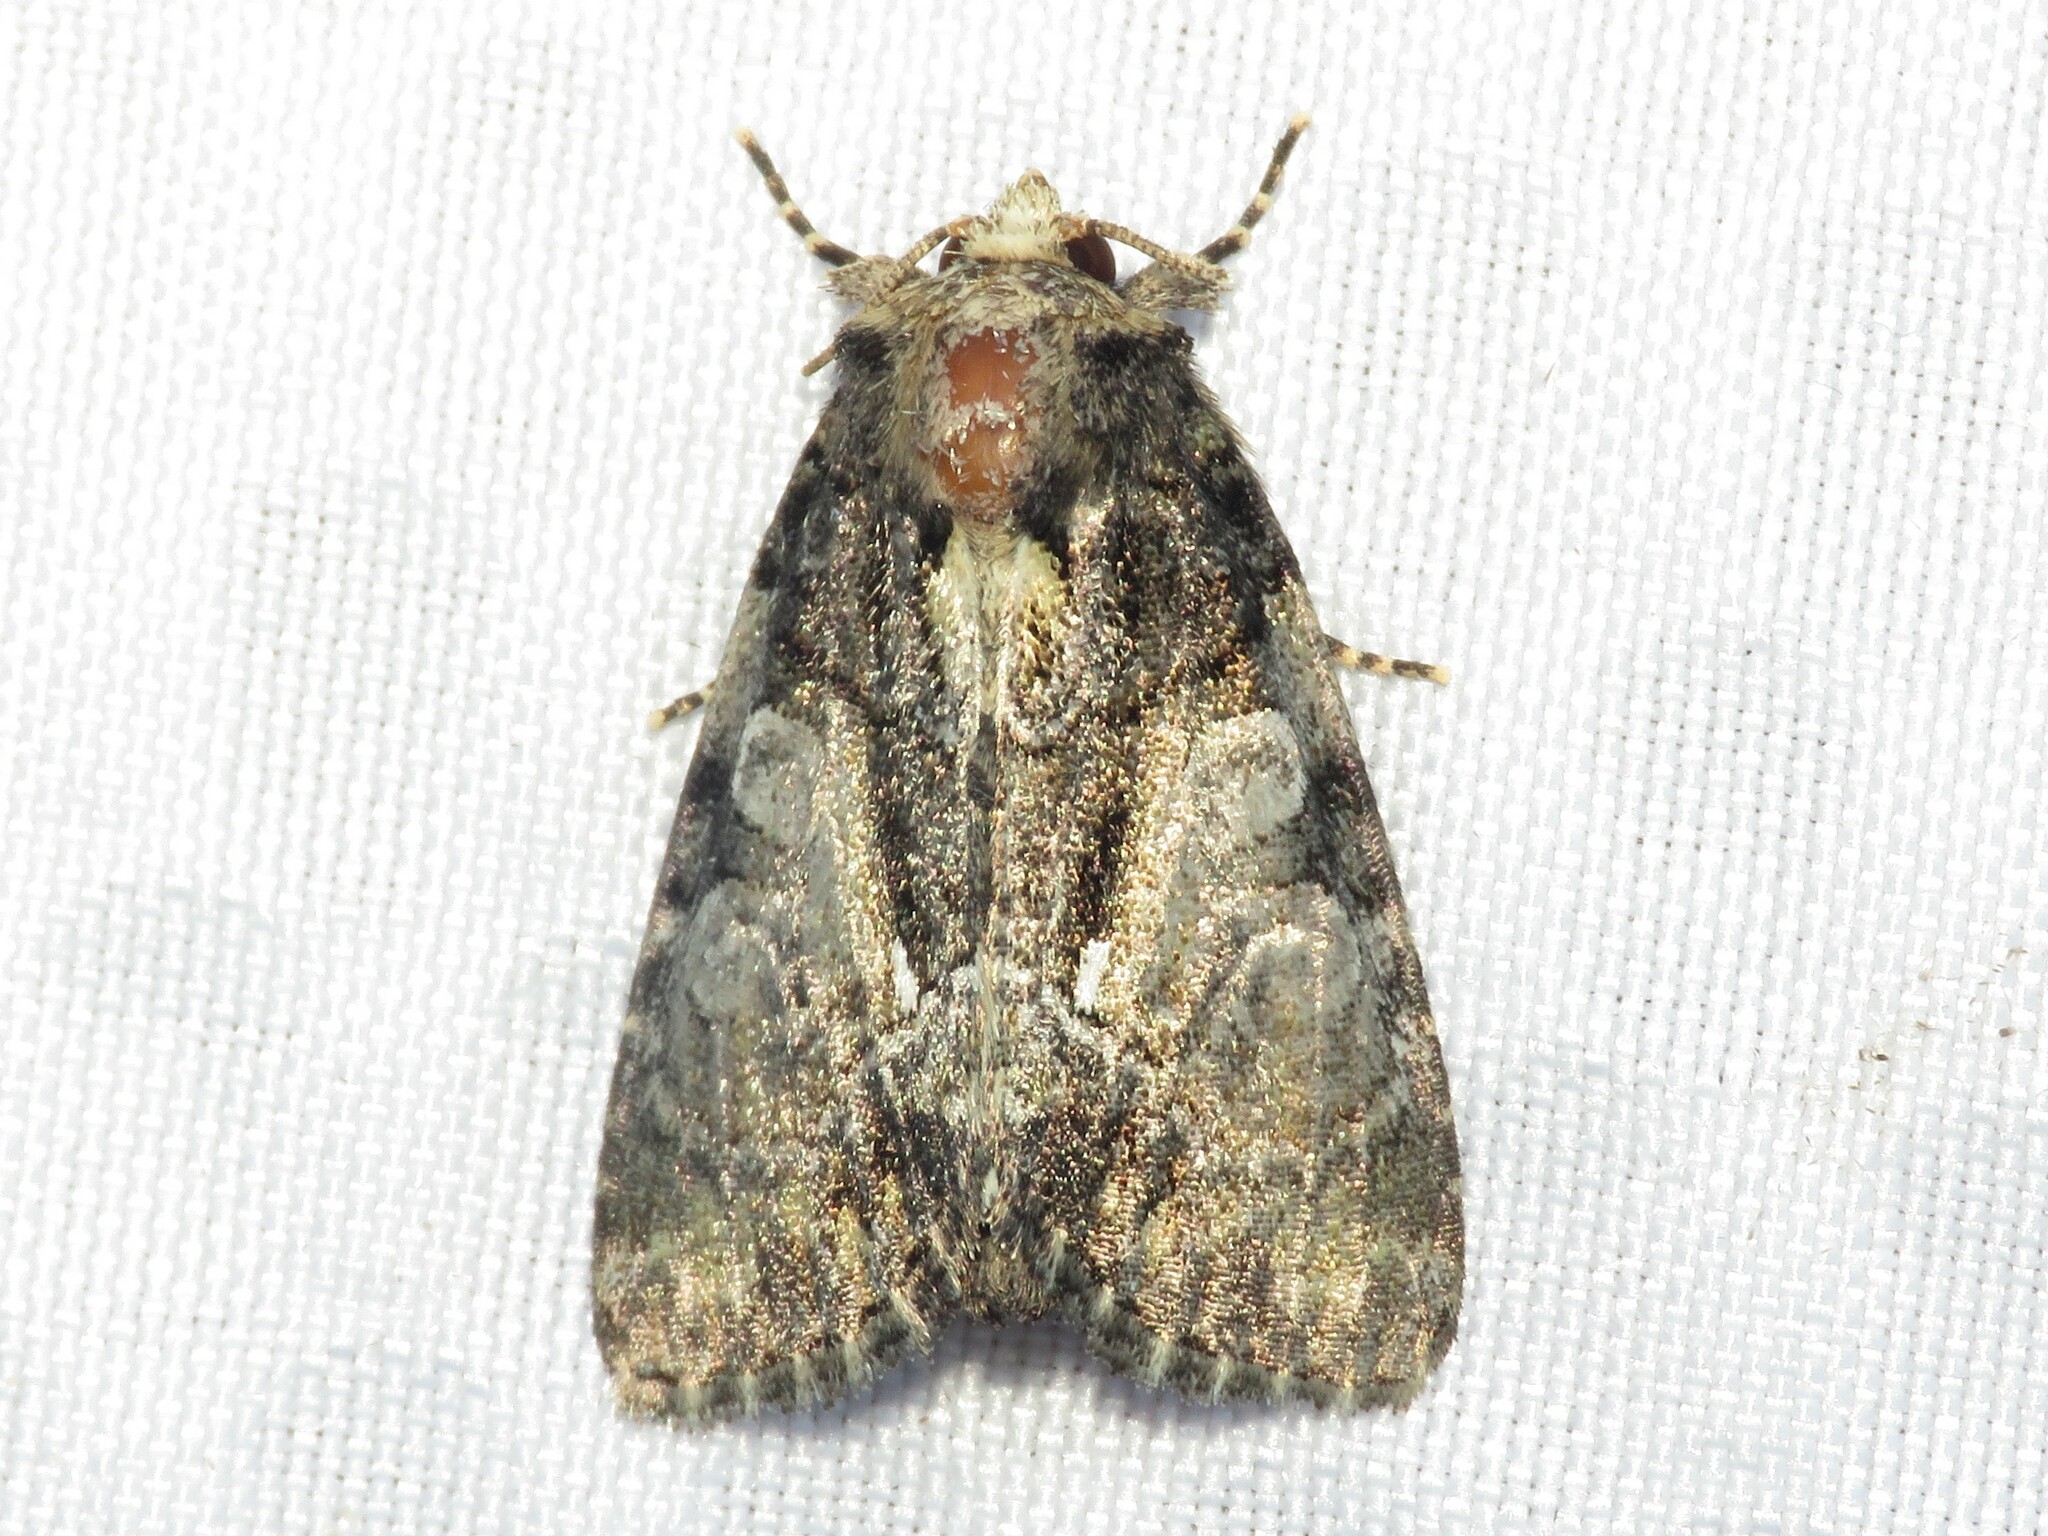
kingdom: Animalia
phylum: Arthropoda
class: Insecta
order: Lepidoptera
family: Noctuidae
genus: Chytonix
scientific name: Chytonix palliatricula
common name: Cloaked marvel
